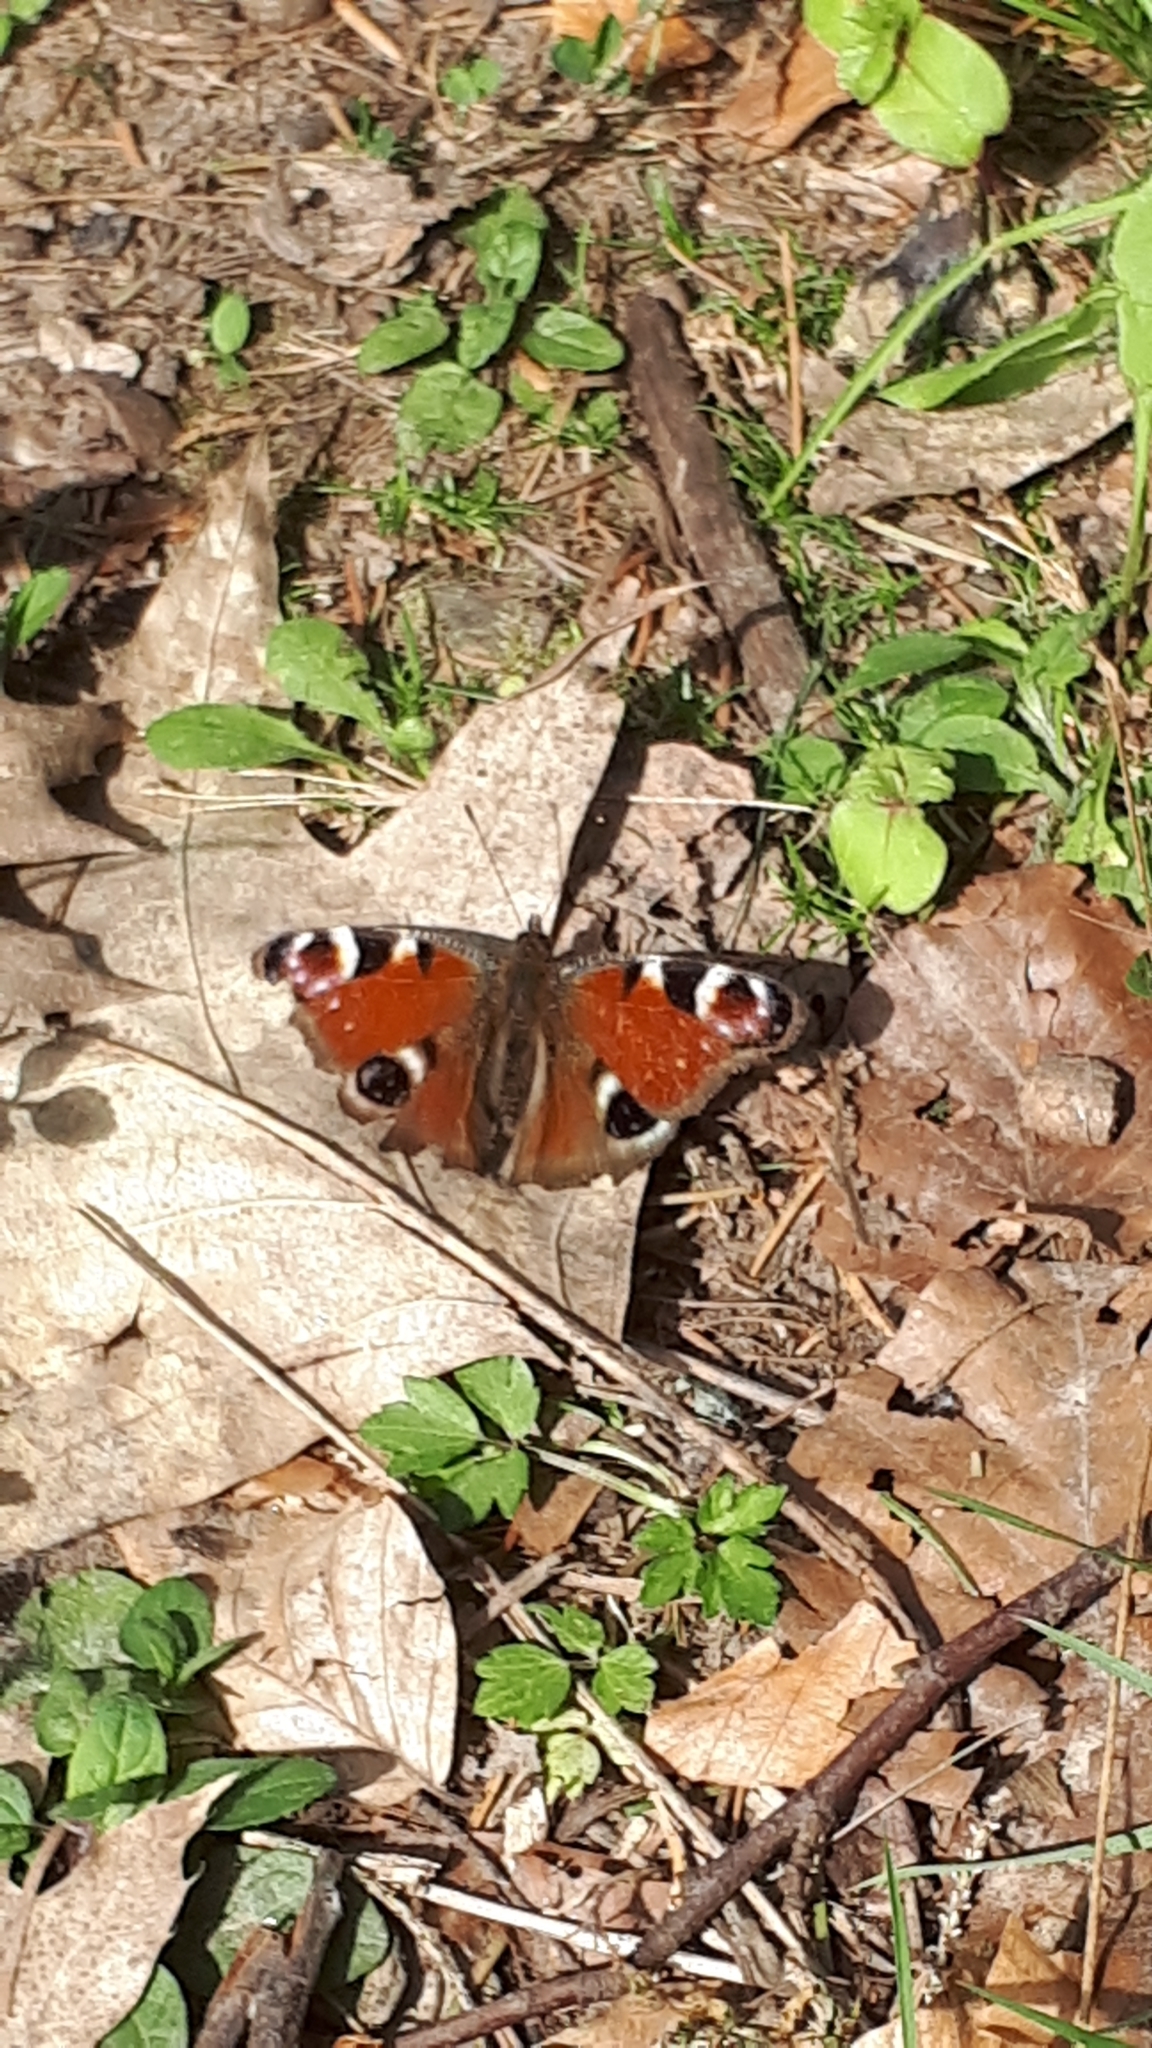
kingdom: Animalia
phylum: Arthropoda
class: Insecta
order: Lepidoptera
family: Nymphalidae
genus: Aglais
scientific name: Aglais io
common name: Peacock
